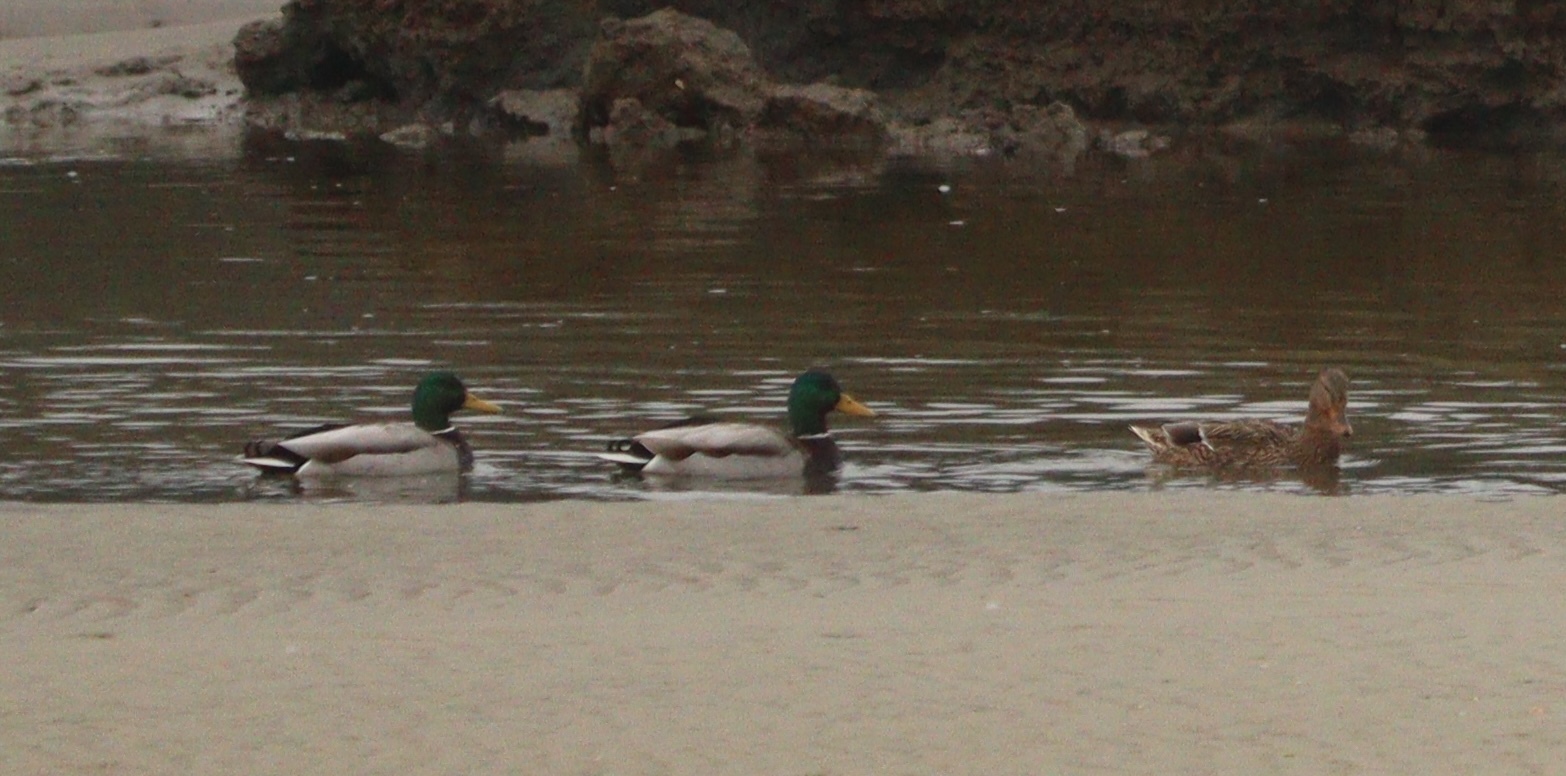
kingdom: Animalia
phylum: Chordata
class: Aves
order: Anseriformes
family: Anatidae
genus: Anas
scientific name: Anas platyrhynchos
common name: Mallard
